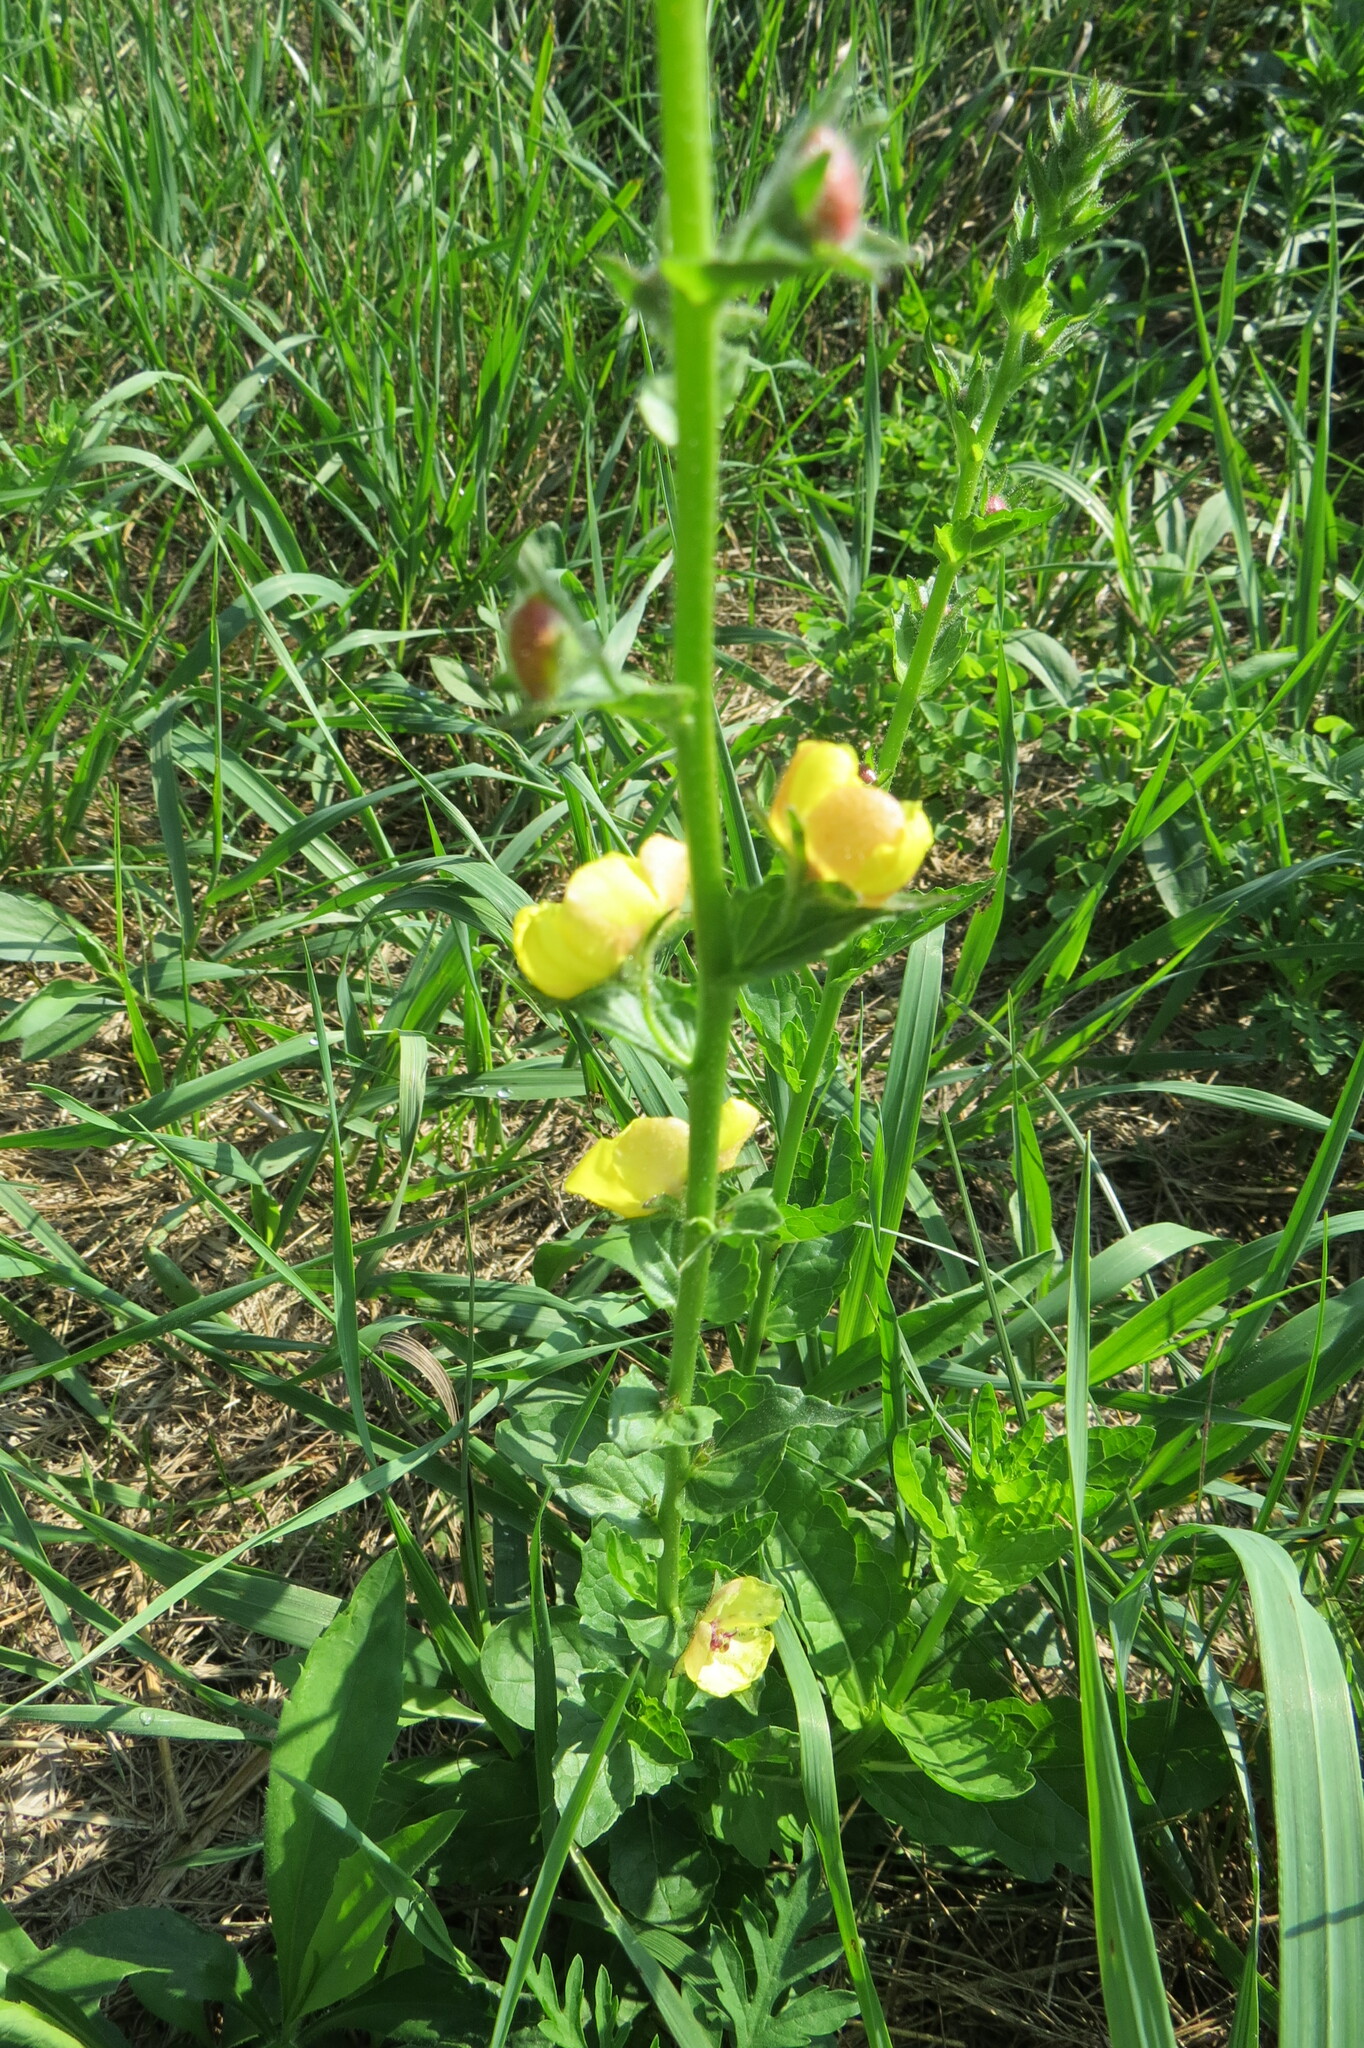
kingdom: Plantae
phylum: Tracheophyta
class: Magnoliopsida
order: Lamiales
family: Scrophulariaceae
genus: Verbascum
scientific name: Verbascum blattaria
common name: Moth mullein
